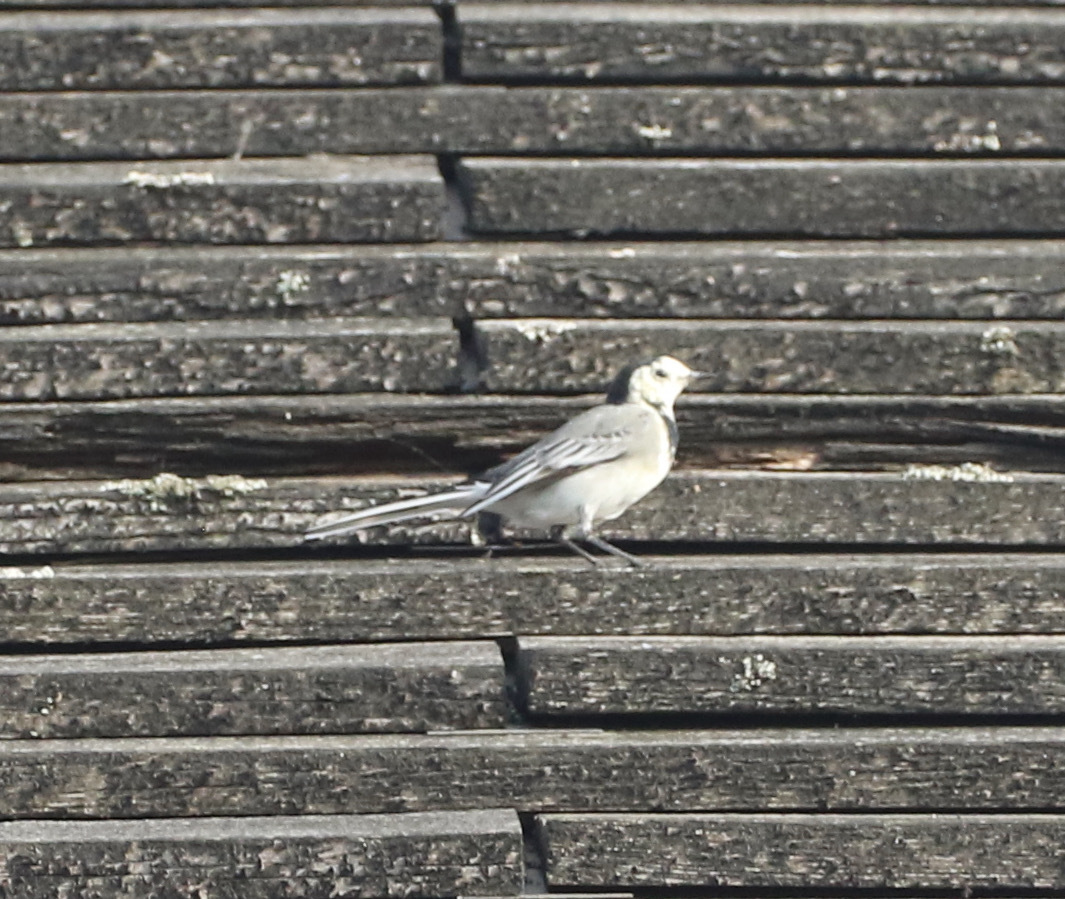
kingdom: Animalia
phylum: Chordata
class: Aves
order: Passeriformes
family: Motacillidae
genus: Motacilla
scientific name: Motacilla alba
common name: White wagtail
